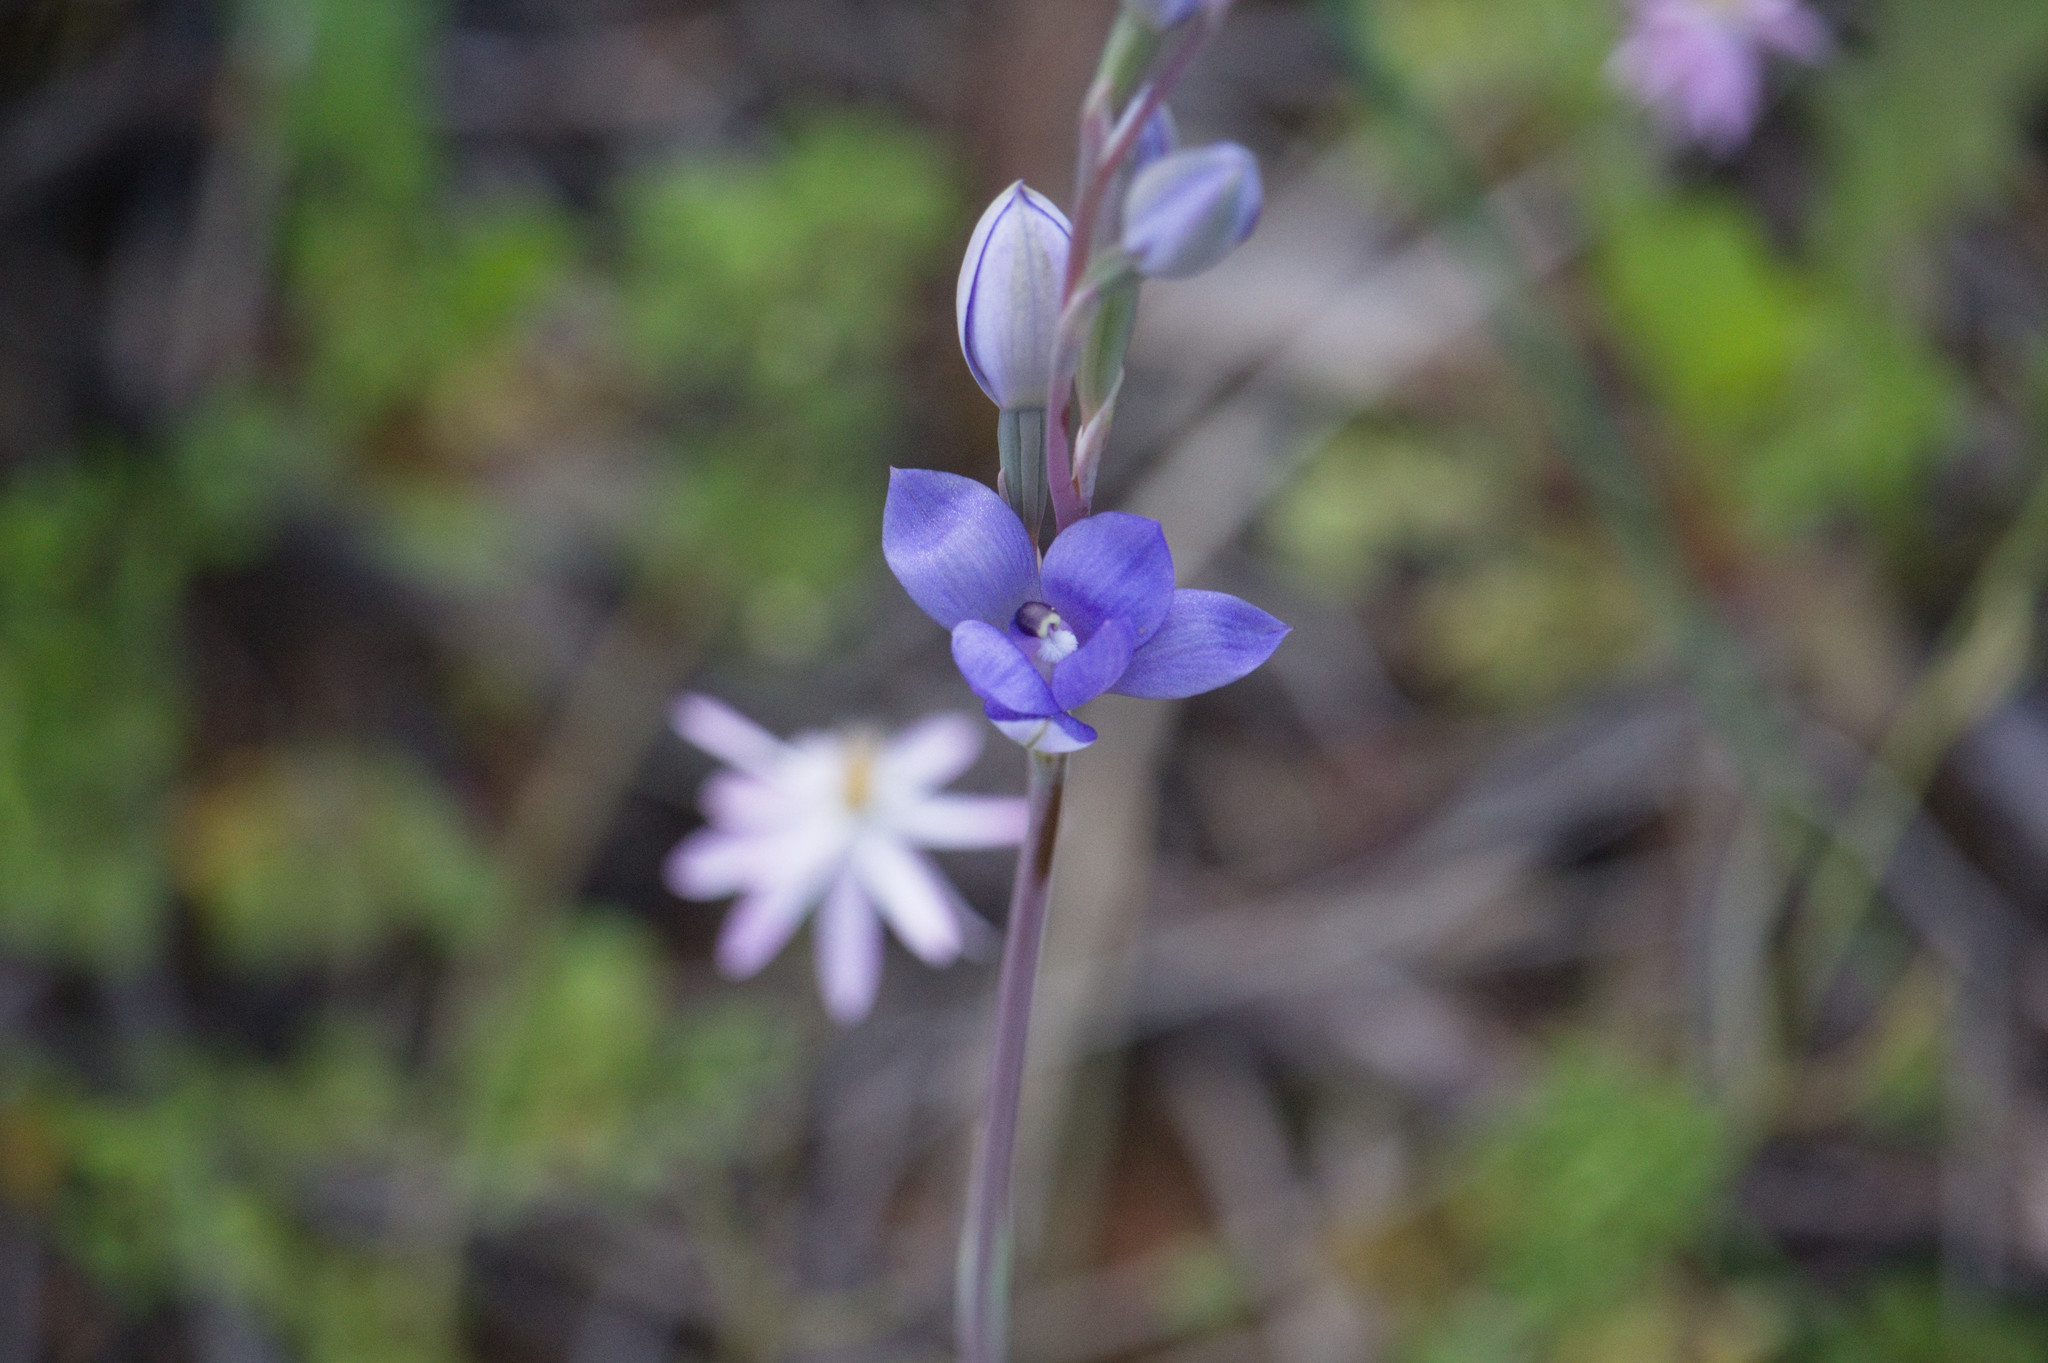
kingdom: Plantae
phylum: Tracheophyta
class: Liliopsida
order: Asparagales
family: Orchidaceae
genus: Thelymitra
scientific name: Thelymitra petrophila
